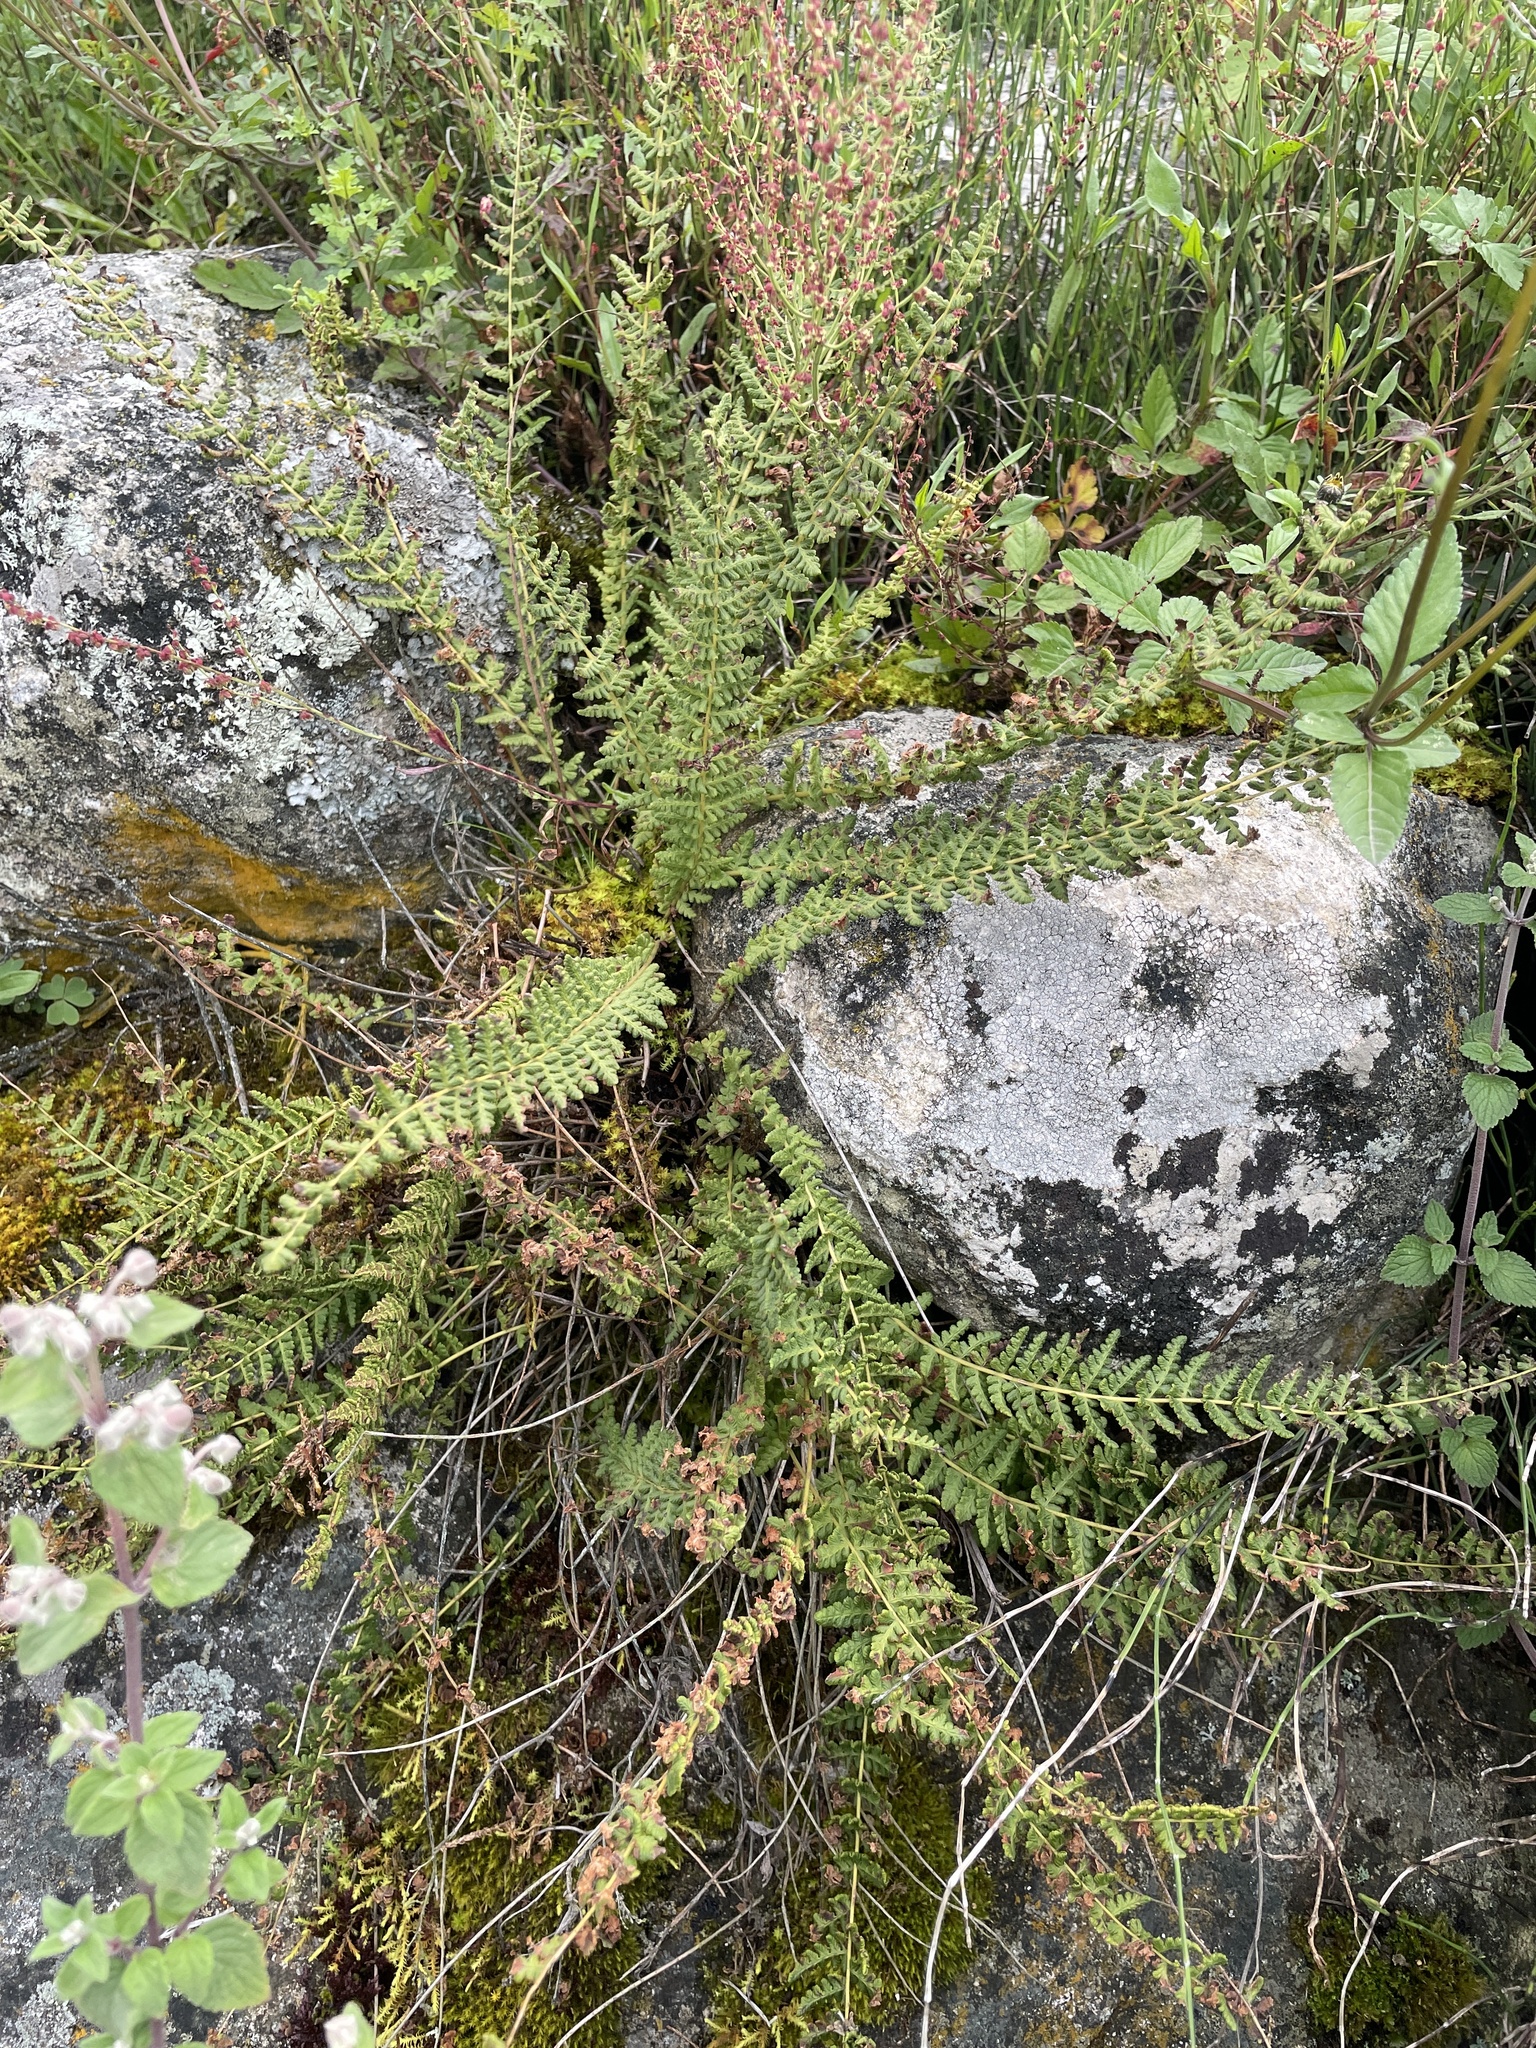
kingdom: Plantae
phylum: Tracheophyta
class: Polypodiopsida
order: Polypodiales
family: Woodsiaceae
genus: Physematium
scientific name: Physematium montevidense
